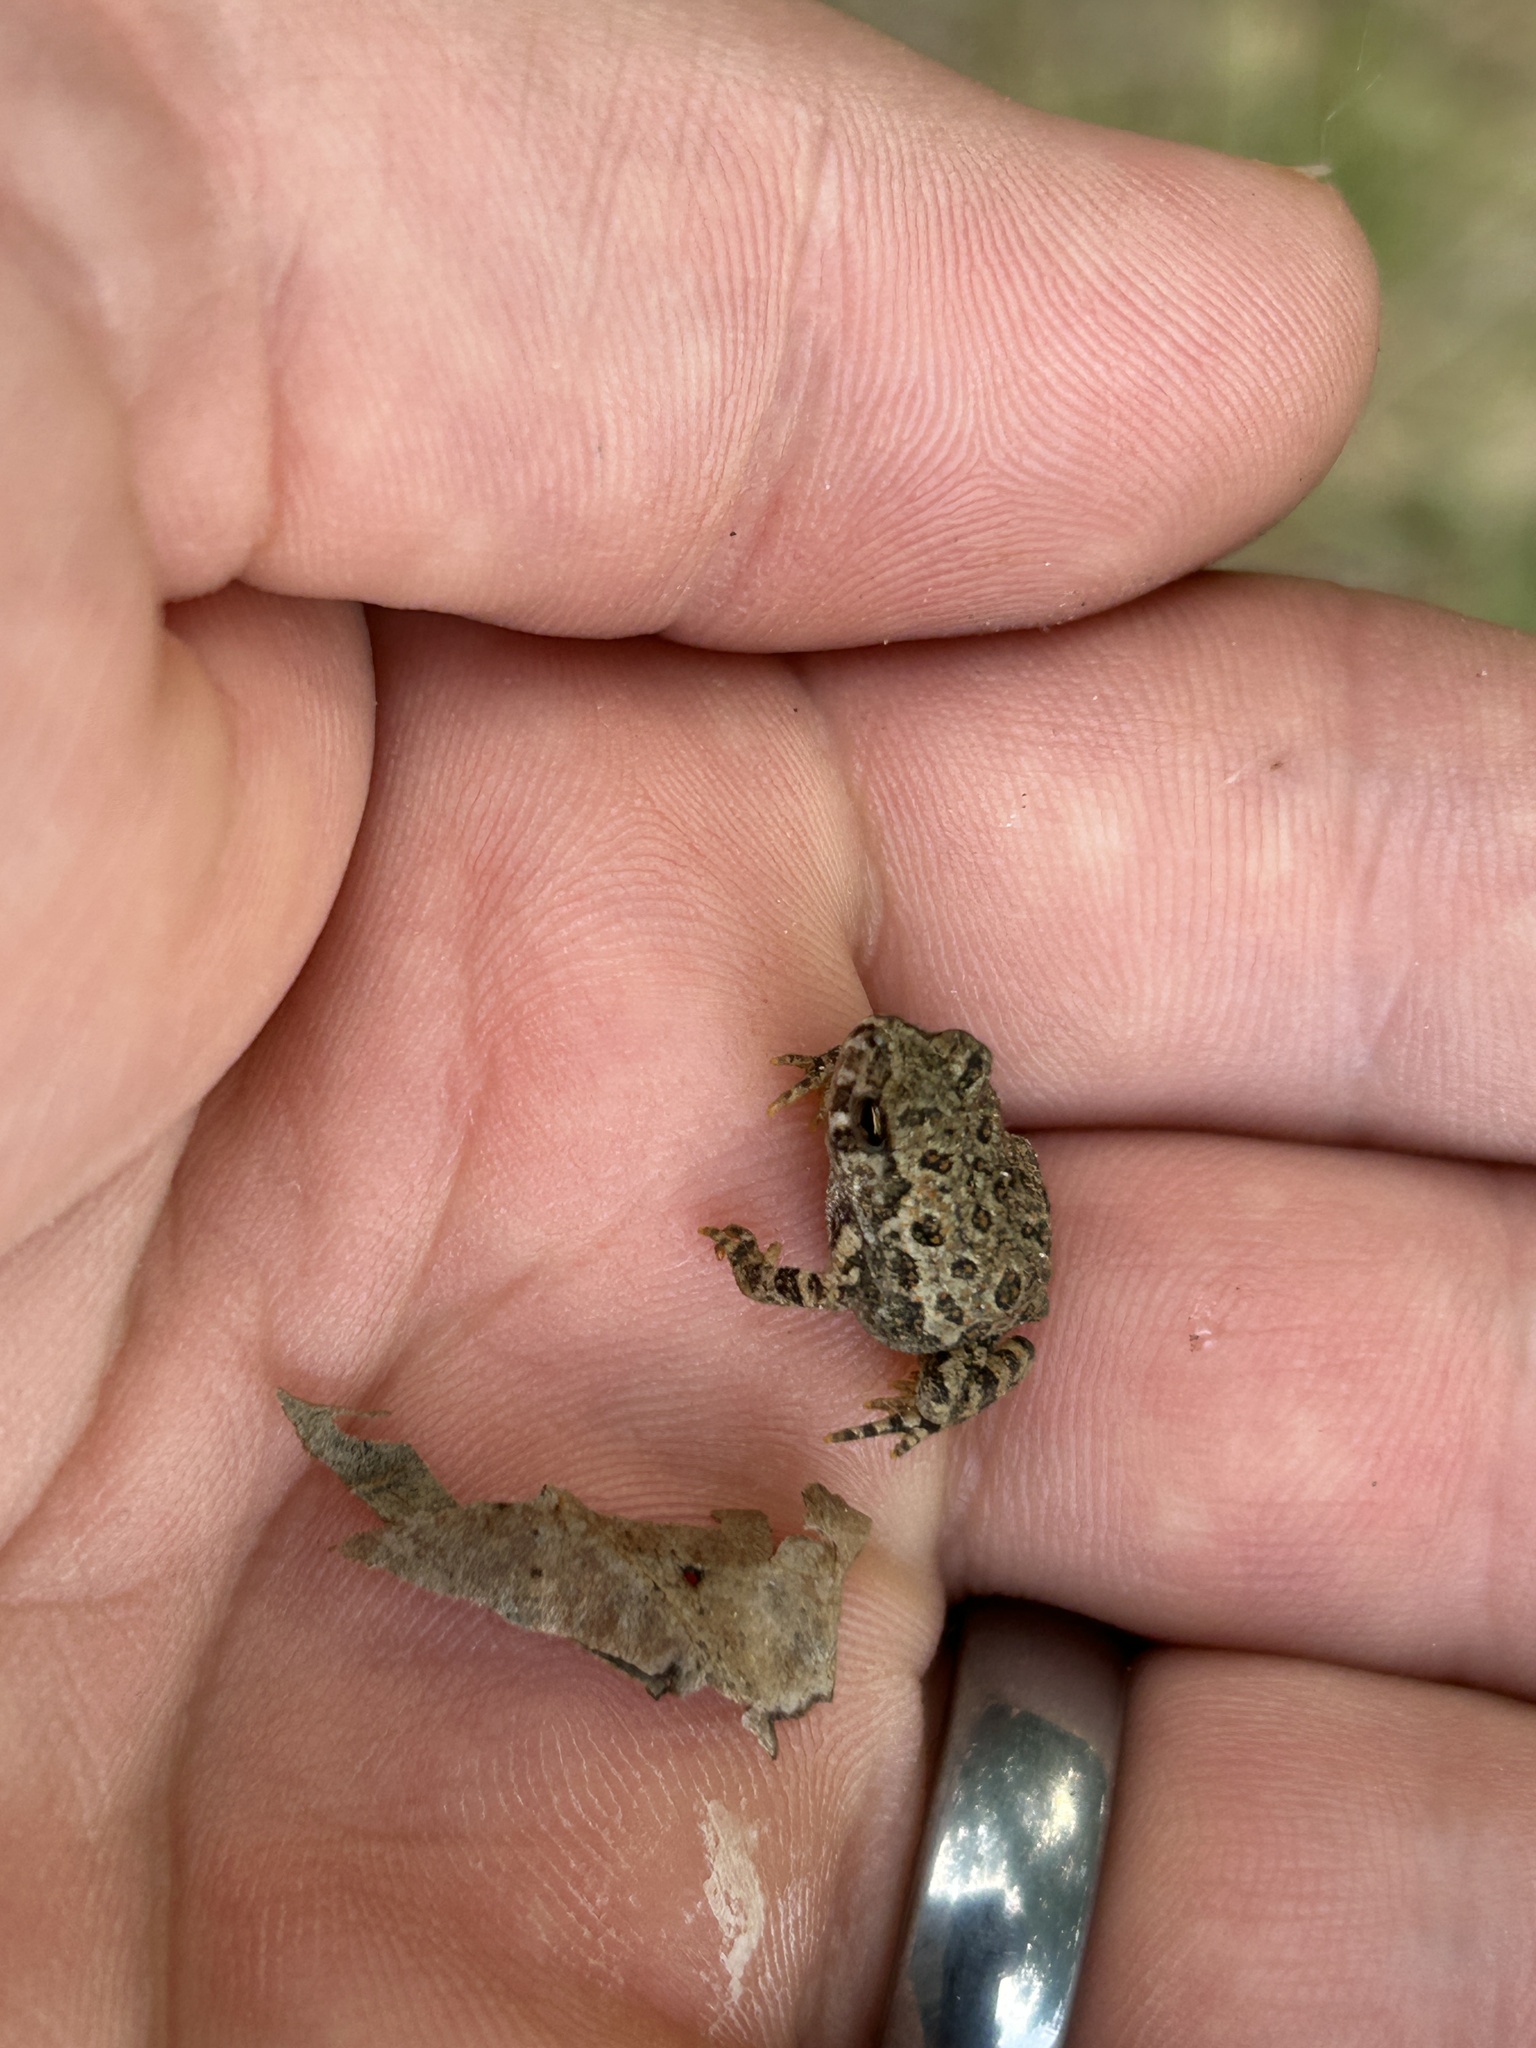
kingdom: Animalia
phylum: Chordata
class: Amphibia
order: Anura
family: Bufonidae
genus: Anaxyrus
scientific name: Anaxyrus americanus
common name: American toad
